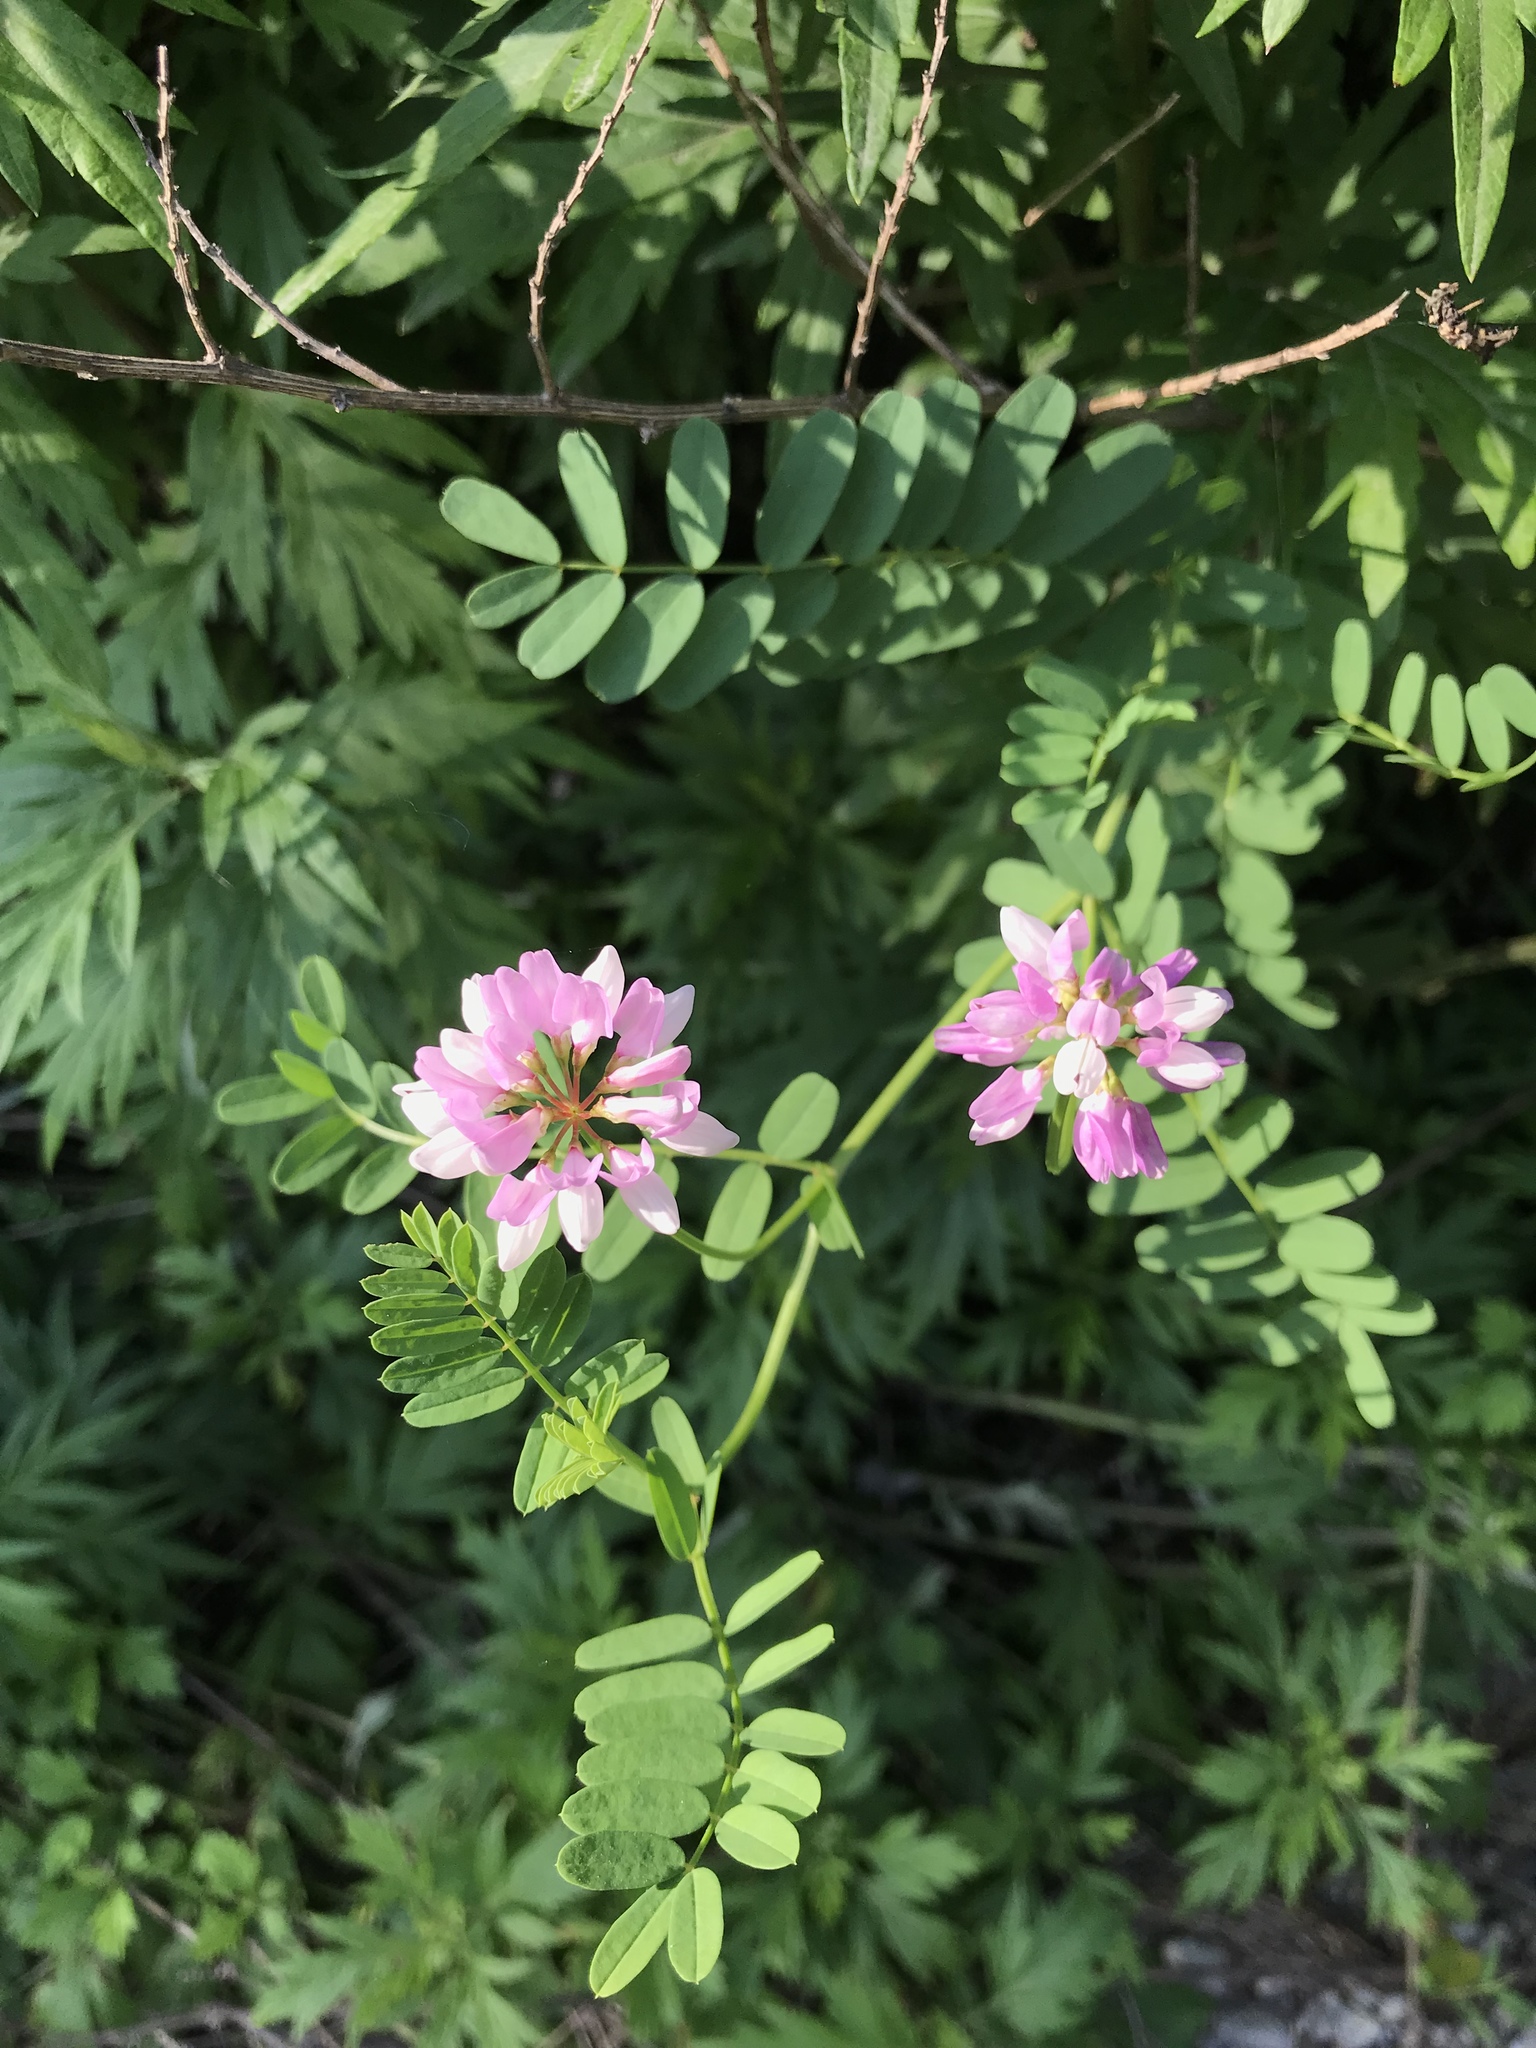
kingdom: Plantae
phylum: Tracheophyta
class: Magnoliopsida
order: Fabales
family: Fabaceae
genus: Coronilla
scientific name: Coronilla varia
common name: Crownvetch
